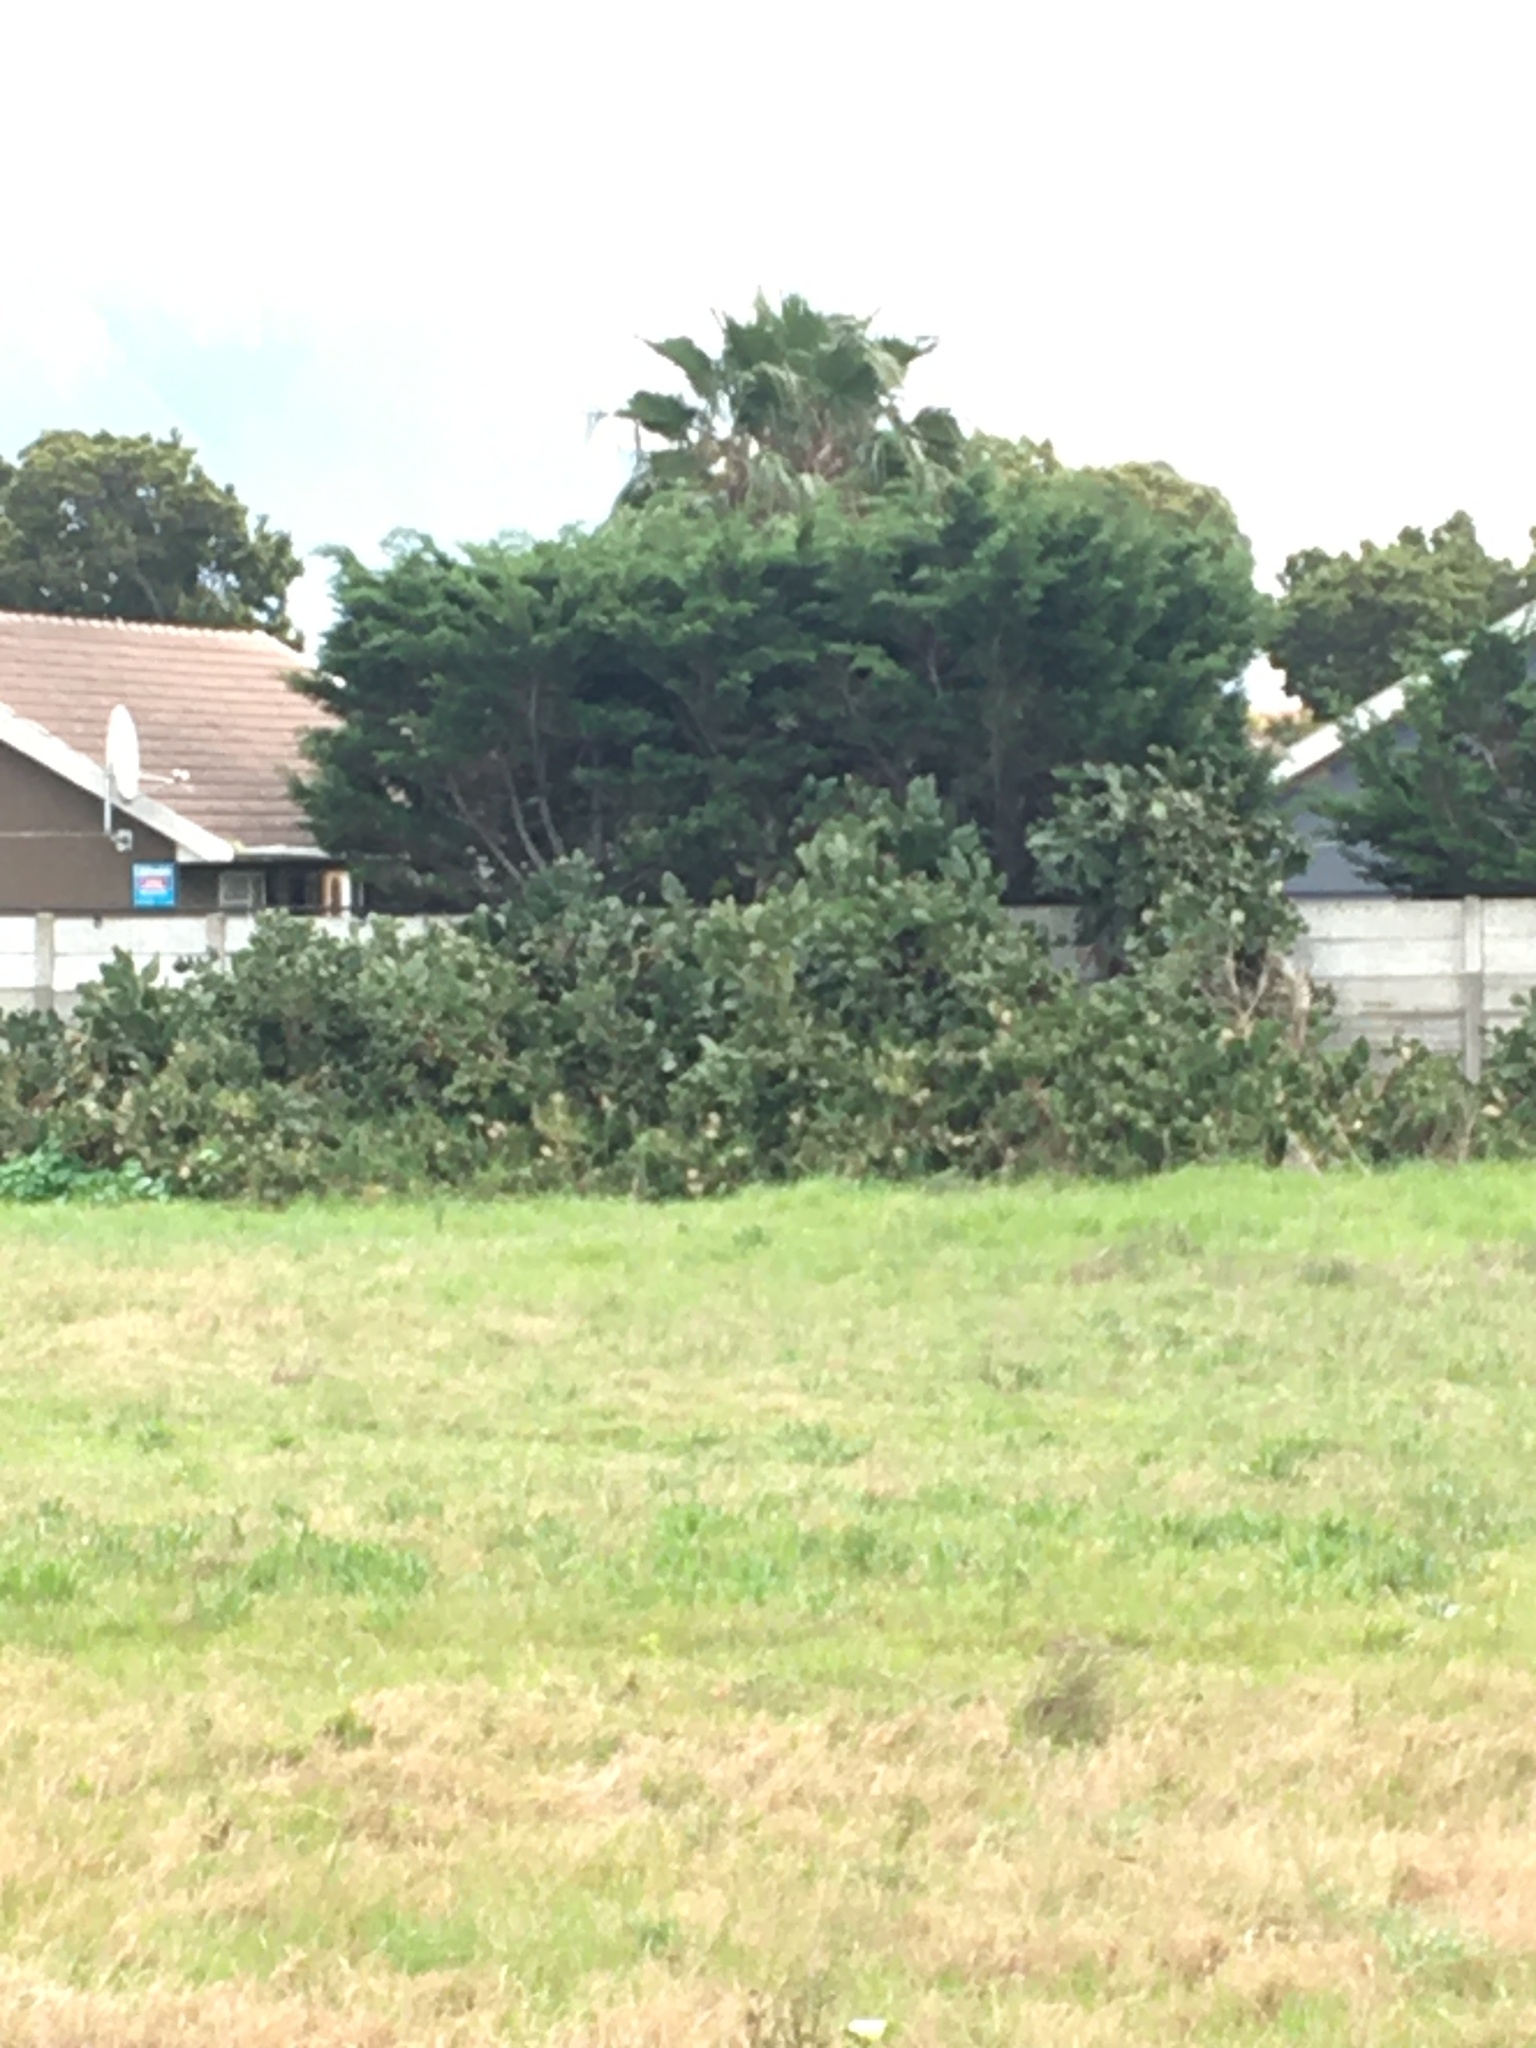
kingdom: Plantae
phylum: Tracheophyta
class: Magnoliopsida
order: Caryophyllales
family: Cactaceae
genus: Opuntia
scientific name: Opuntia monacantha
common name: Common pricklypear
